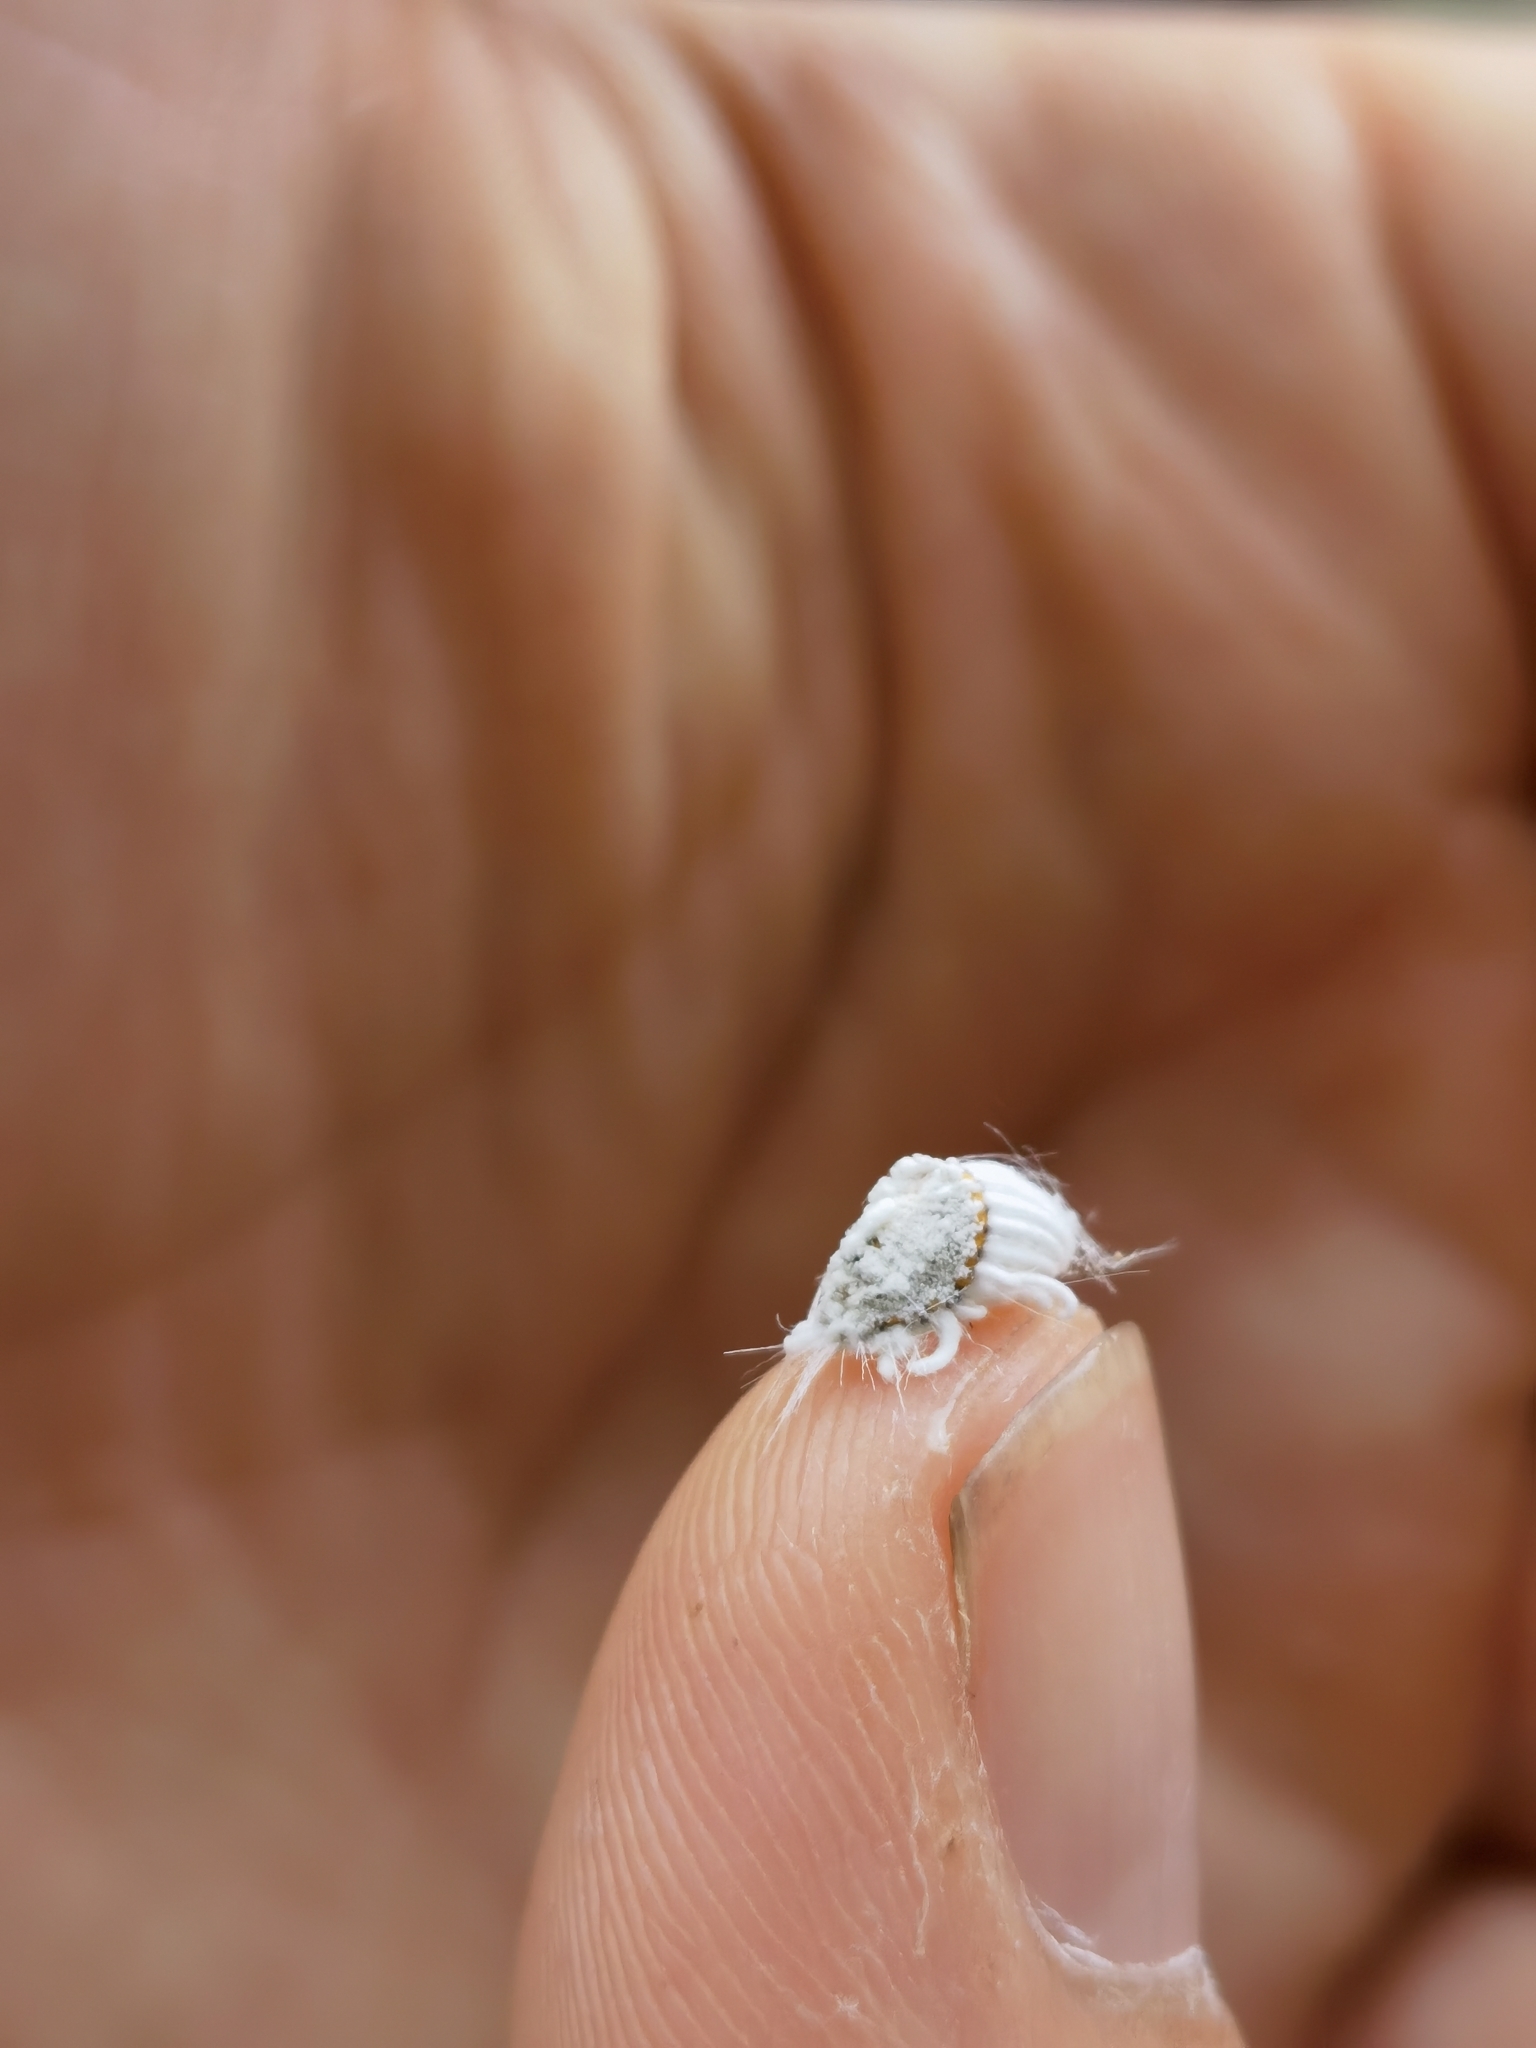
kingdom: Animalia
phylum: Arthropoda
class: Insecta
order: Hemiptera
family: Margarodidae
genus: Icerya
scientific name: Icerya purchasi
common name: Cottony cushion scale
